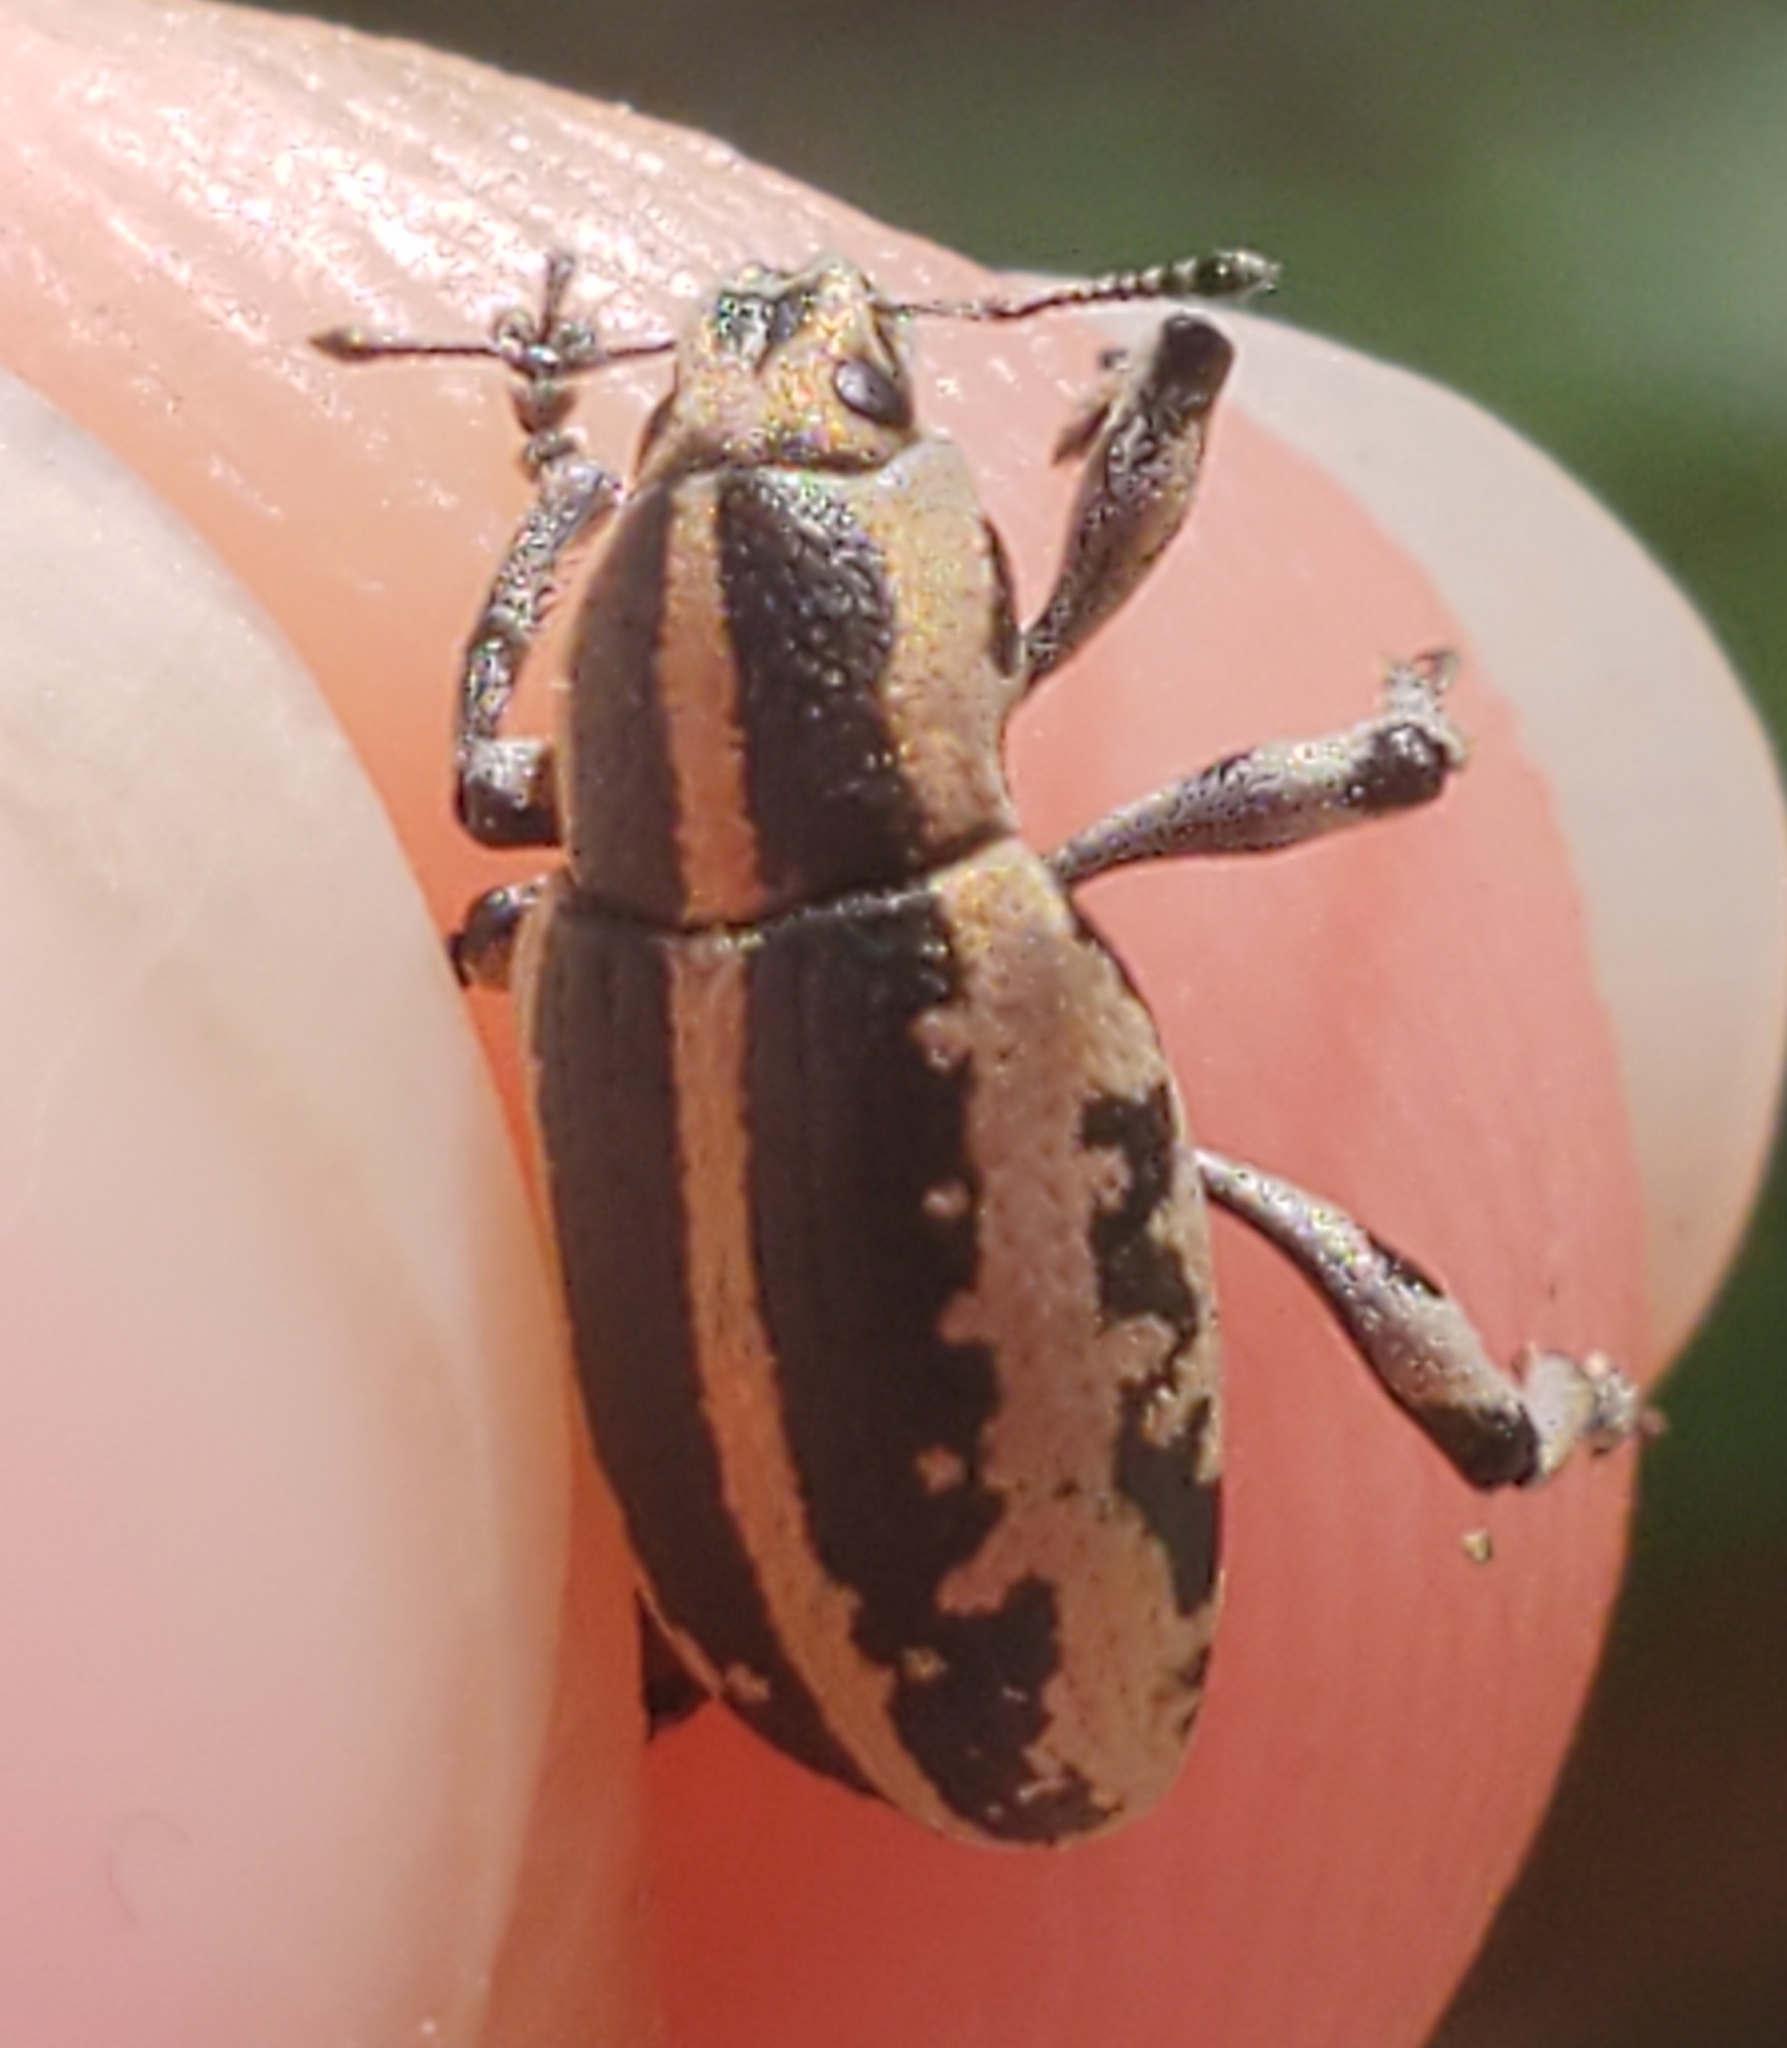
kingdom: Animalia
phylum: Arthropoda
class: Insecta
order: Coleoptera
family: Curculionidae
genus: Eudiagogus
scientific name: Eudiagogus rosenschoeldi
